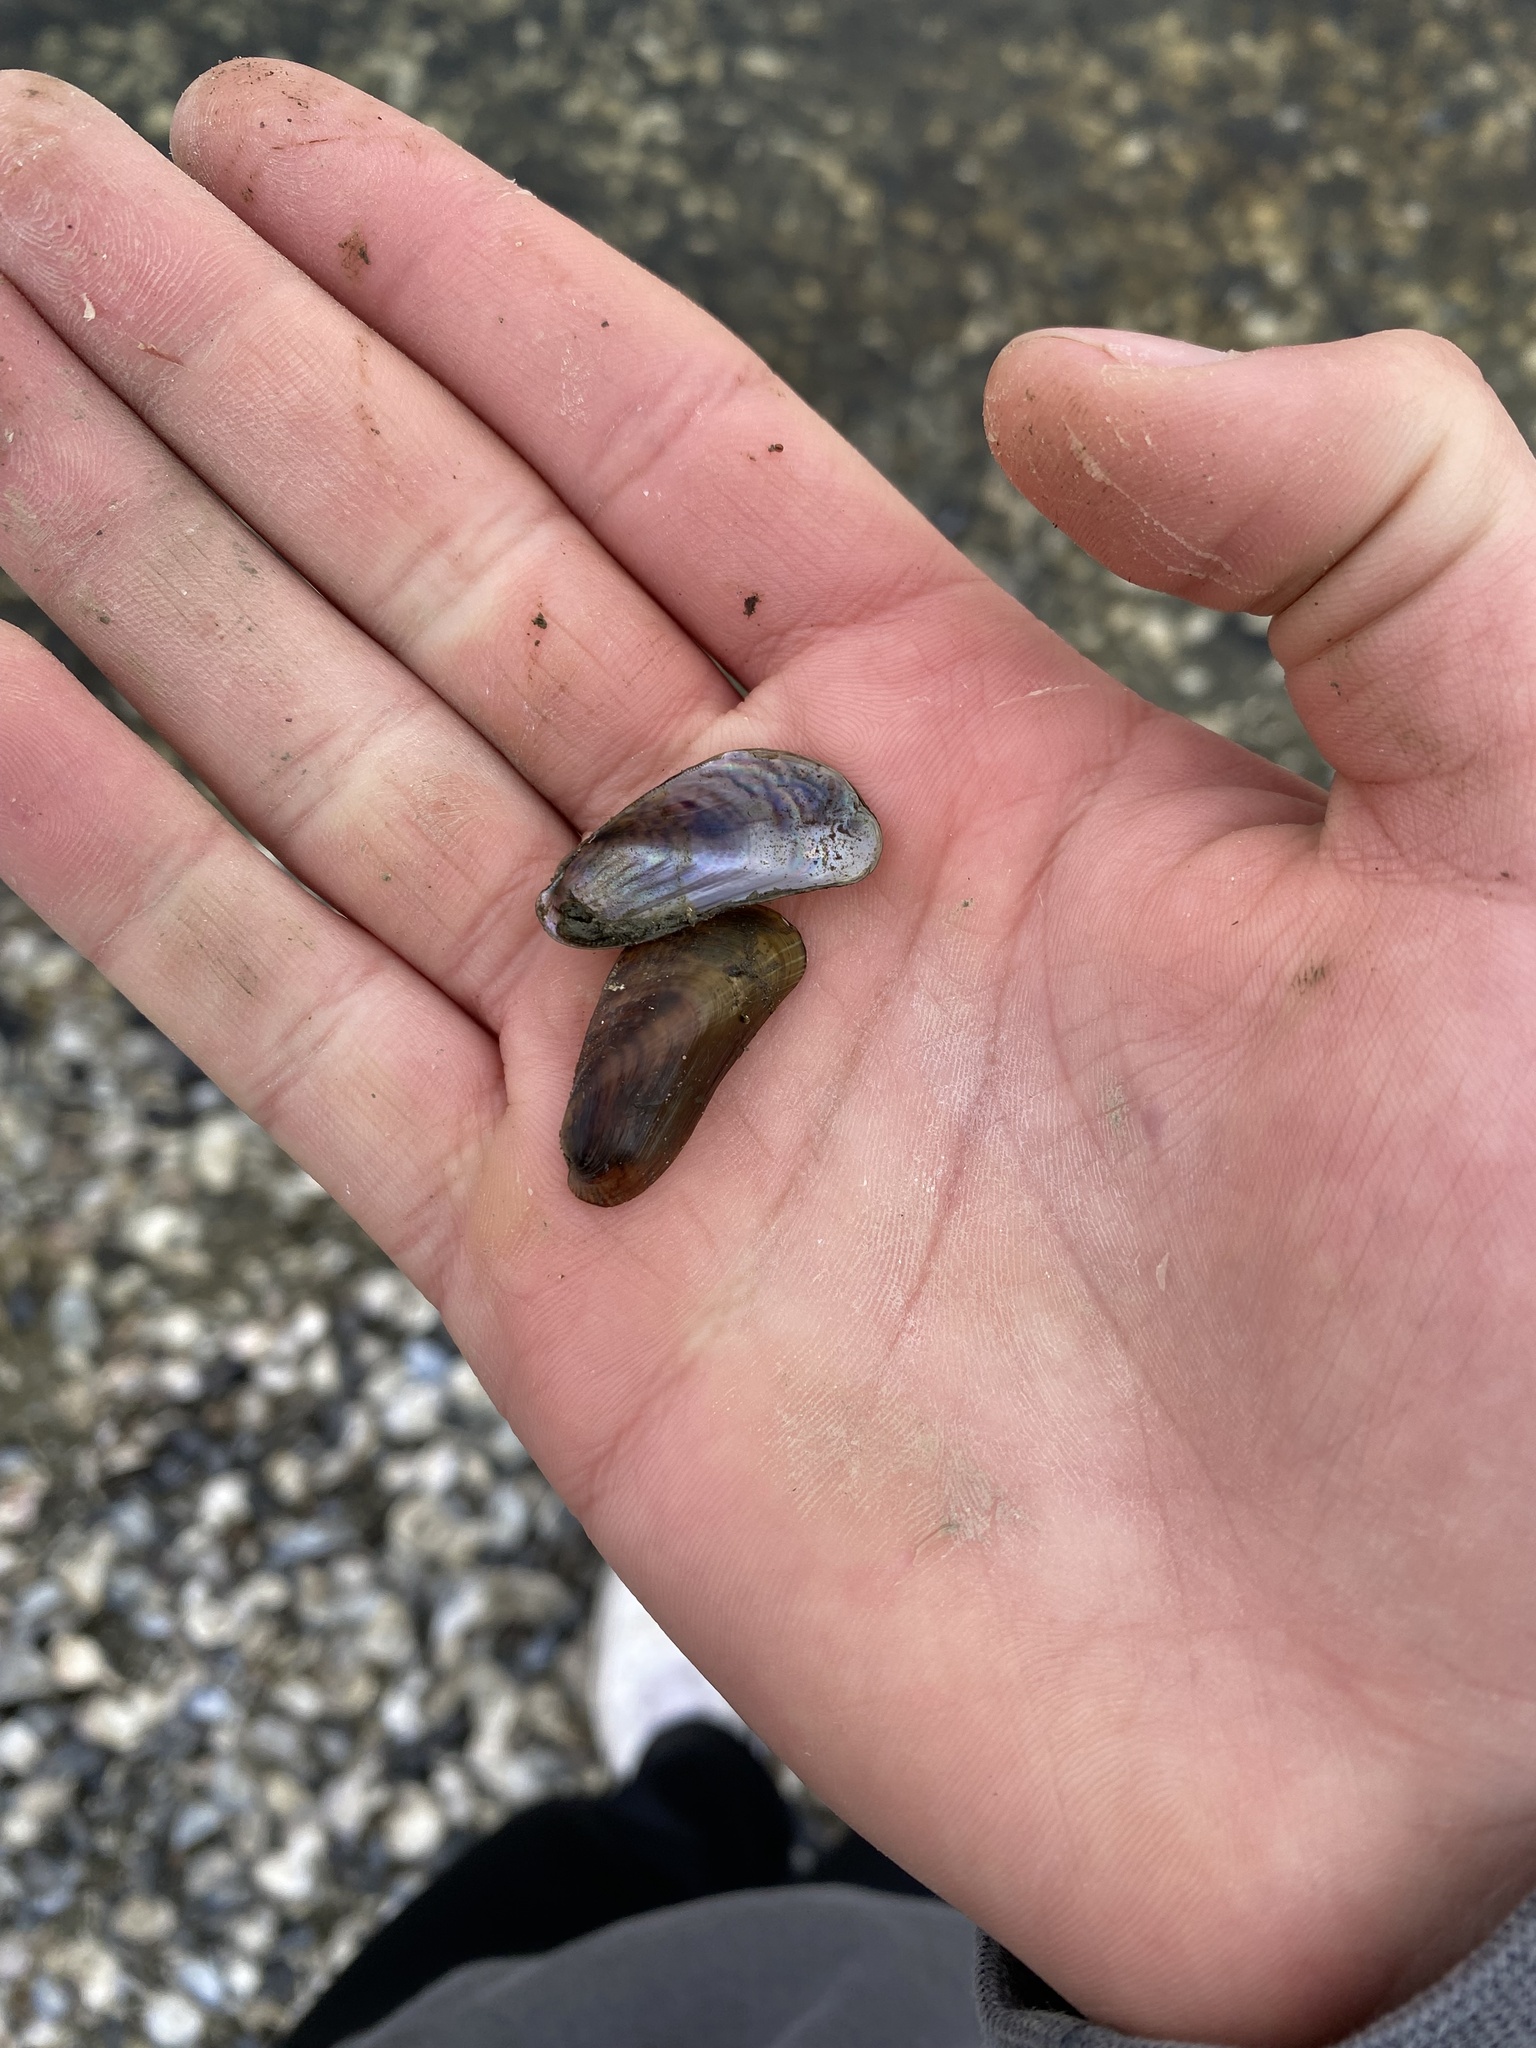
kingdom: Animalia
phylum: Mollusca
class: Bivalvia
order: Mytilida
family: Mytilidae
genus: Arcuatula
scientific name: Arcuatula senhousia
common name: Asian mussel
